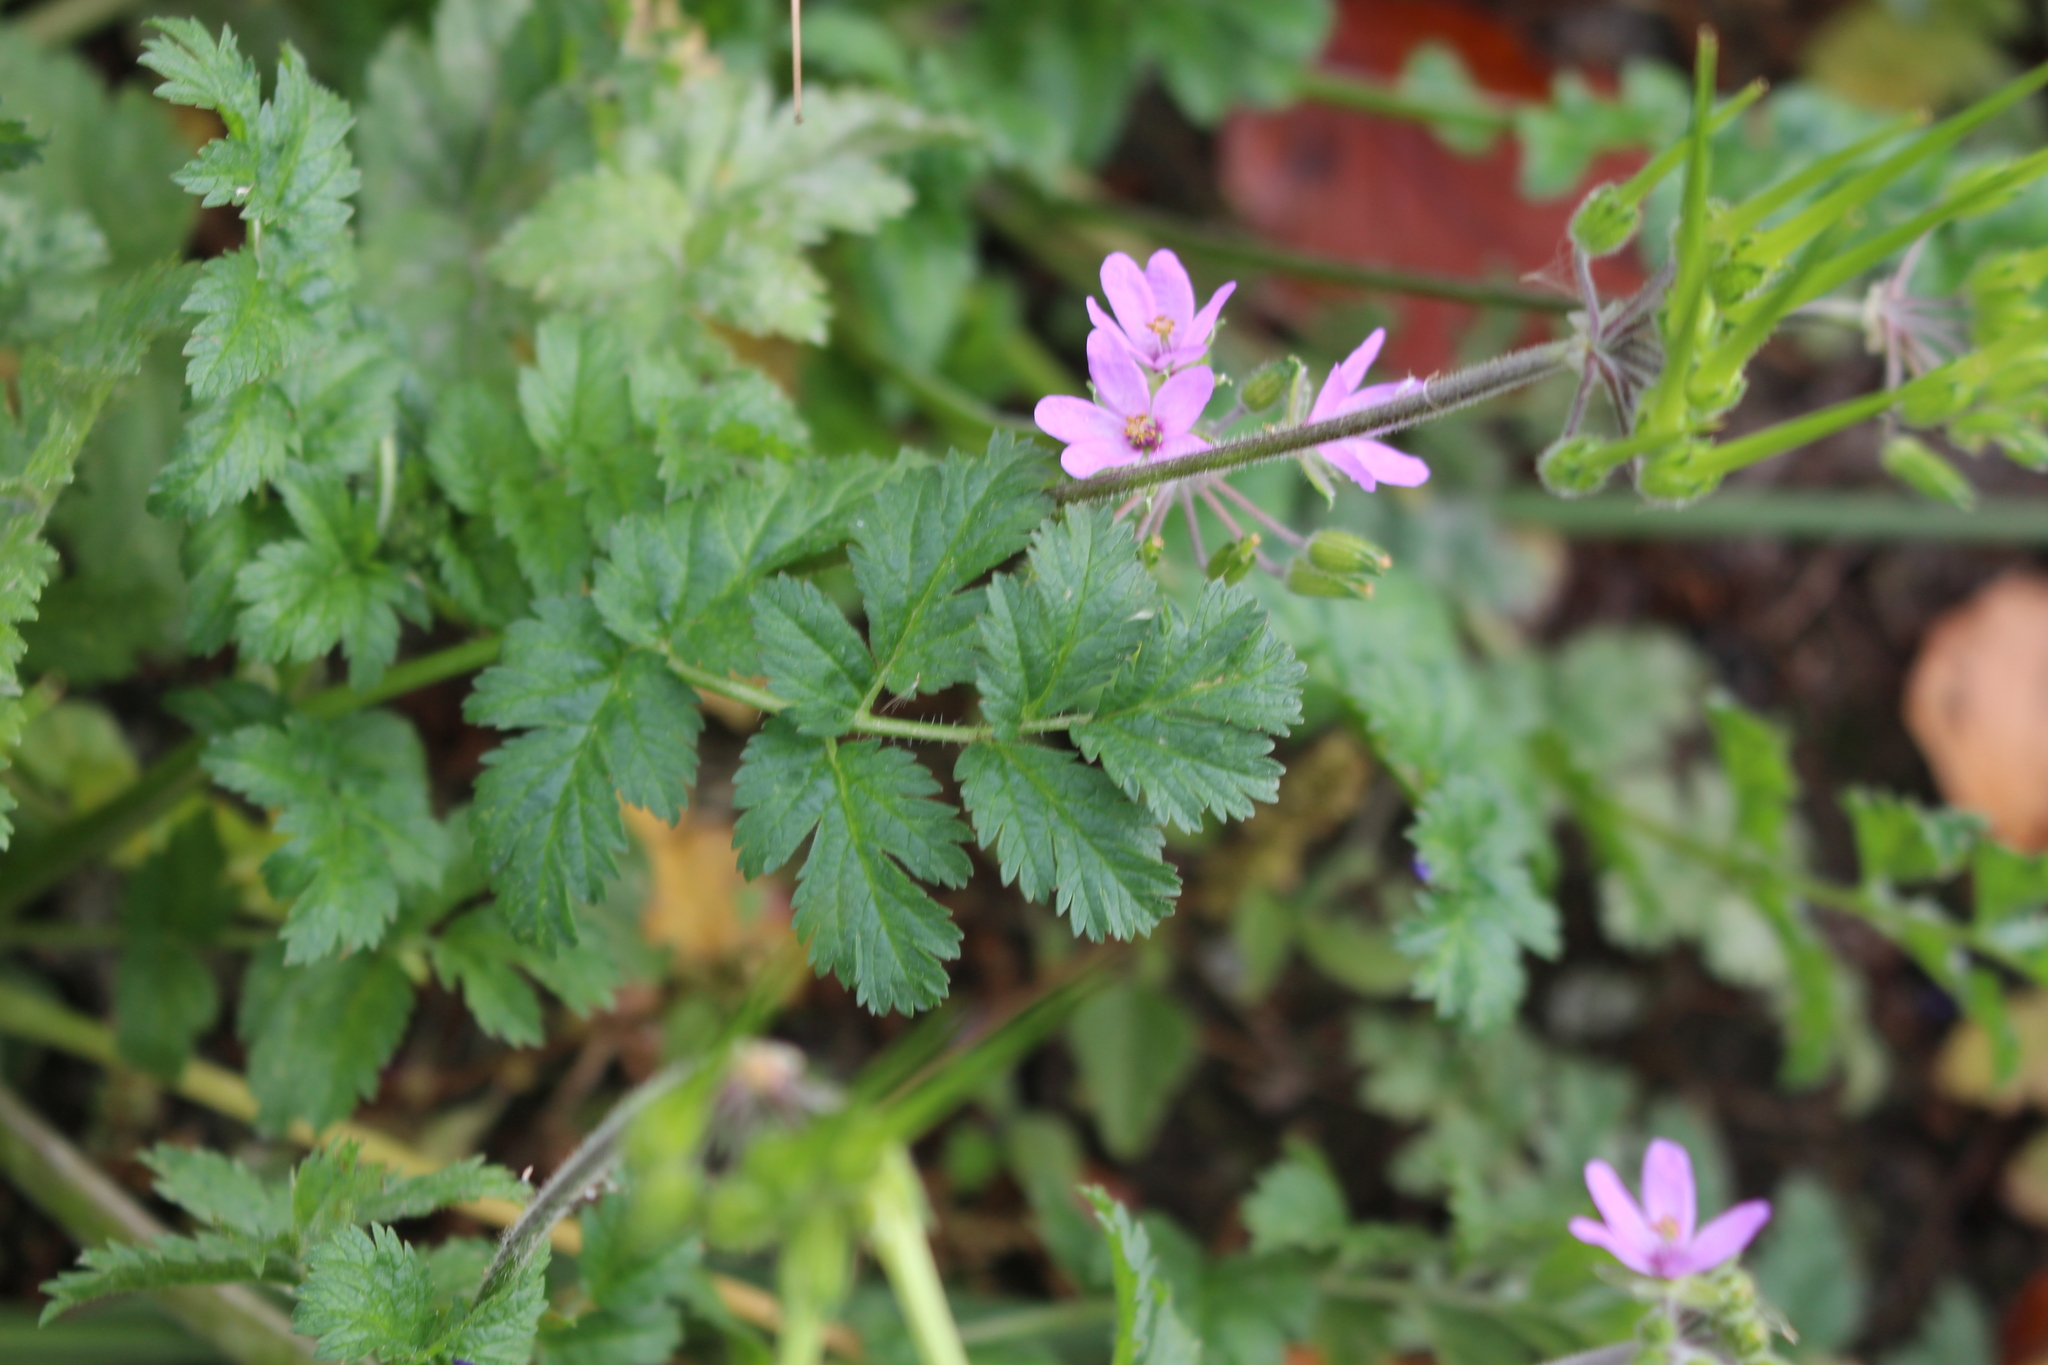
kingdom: Plantae
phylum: Tracheophyta
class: Magnoliopsida
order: Geraniales
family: Geraniaceae
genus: Erodium
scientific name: Erodium moschatum
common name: Musk stork's-bill
